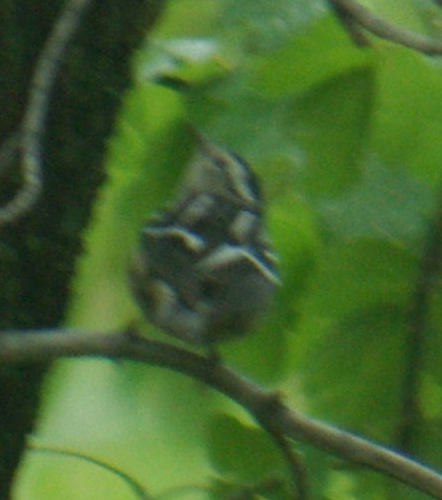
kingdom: Animalia
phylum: Chordata
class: Aves
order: Passeriformes
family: Parulidae
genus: Mniotilta
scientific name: Mniotilta varia
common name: Black-and-white warbler
